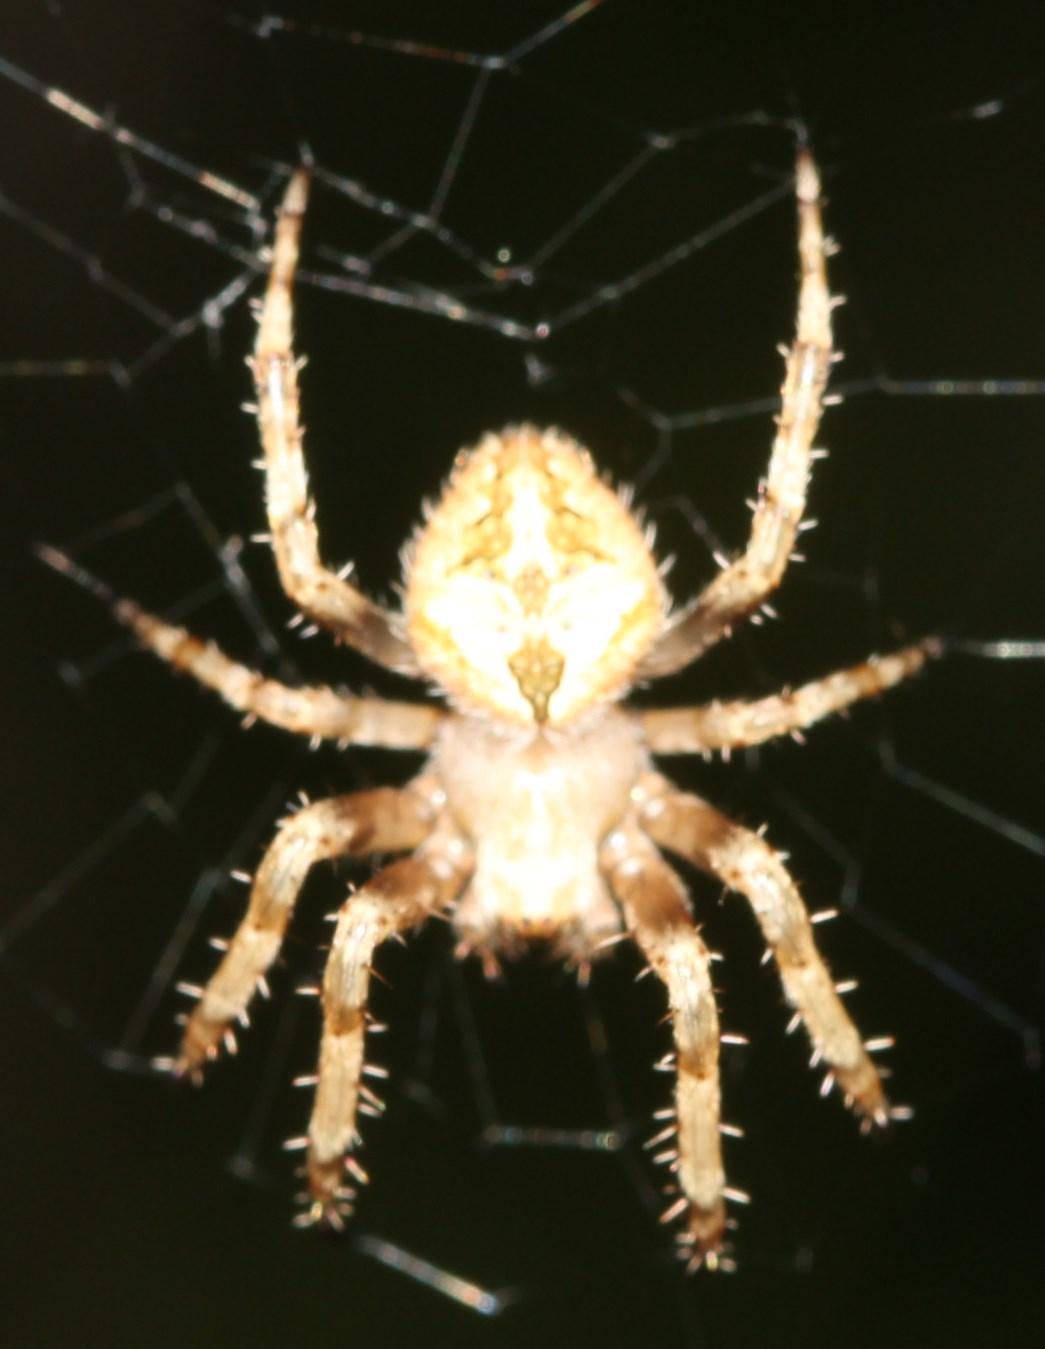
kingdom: Animalia
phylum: Arthropoda
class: Arachnida
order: Araneae
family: Araneidae
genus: Pararaneus
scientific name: Pararaneus perforatus
